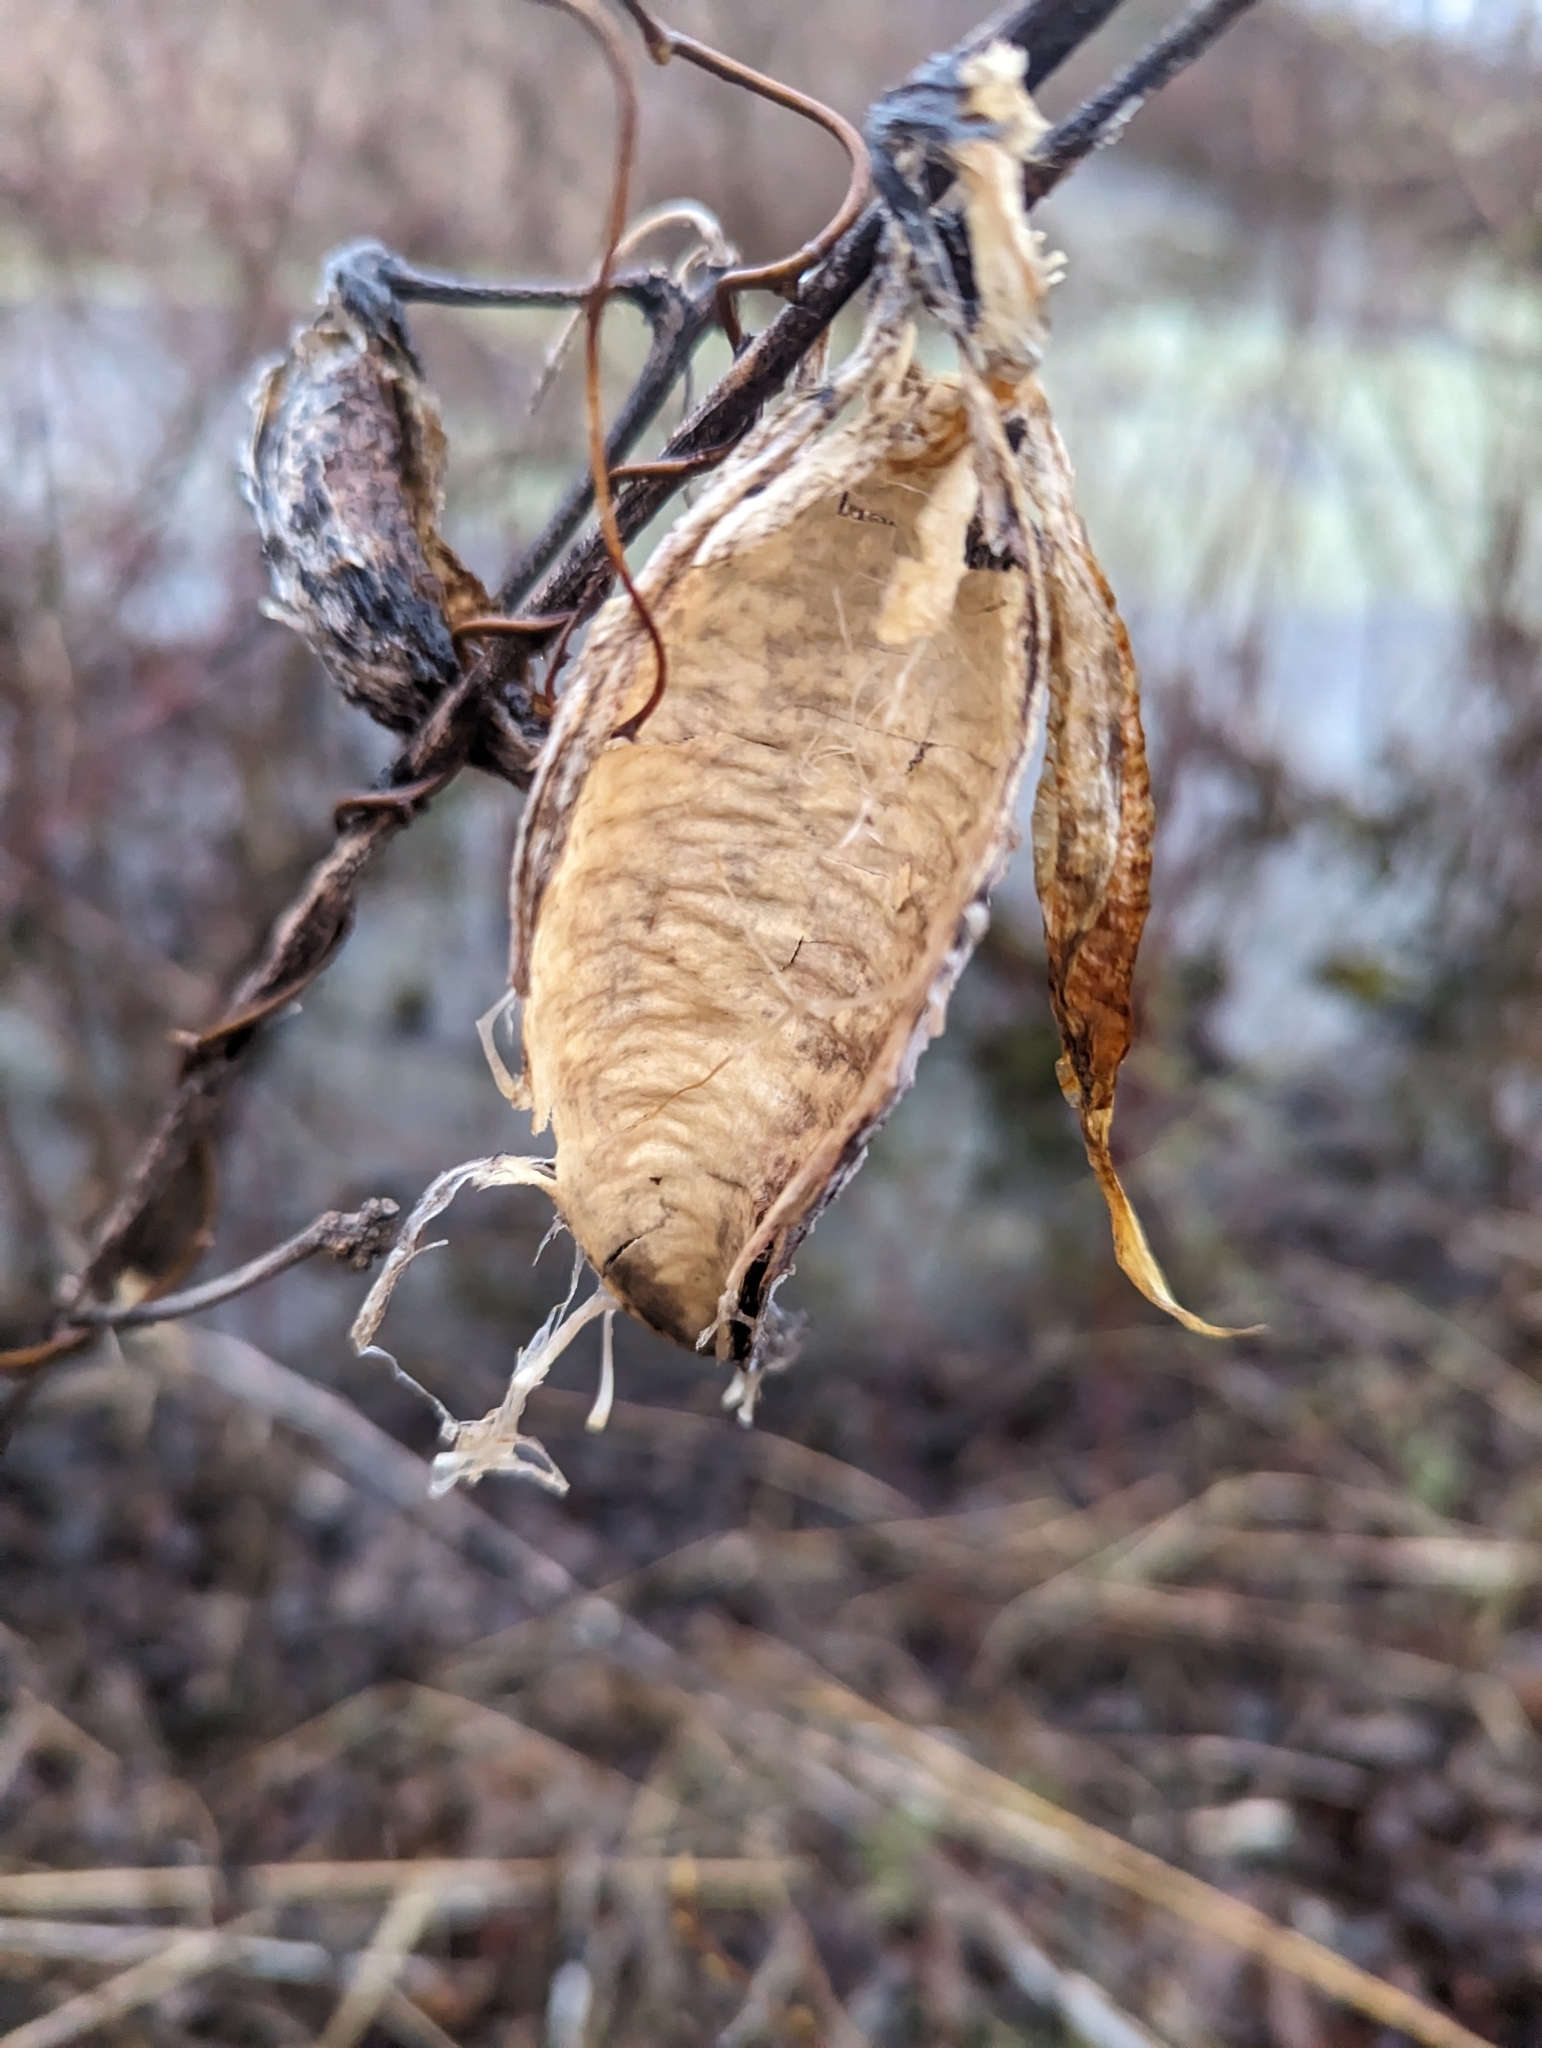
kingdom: Plantae
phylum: Tracheophyta
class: Magnoliopsida
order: Gentianales
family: Apocynaceae
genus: Asclepias
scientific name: Asclepias syriaca
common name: Common milkweed
